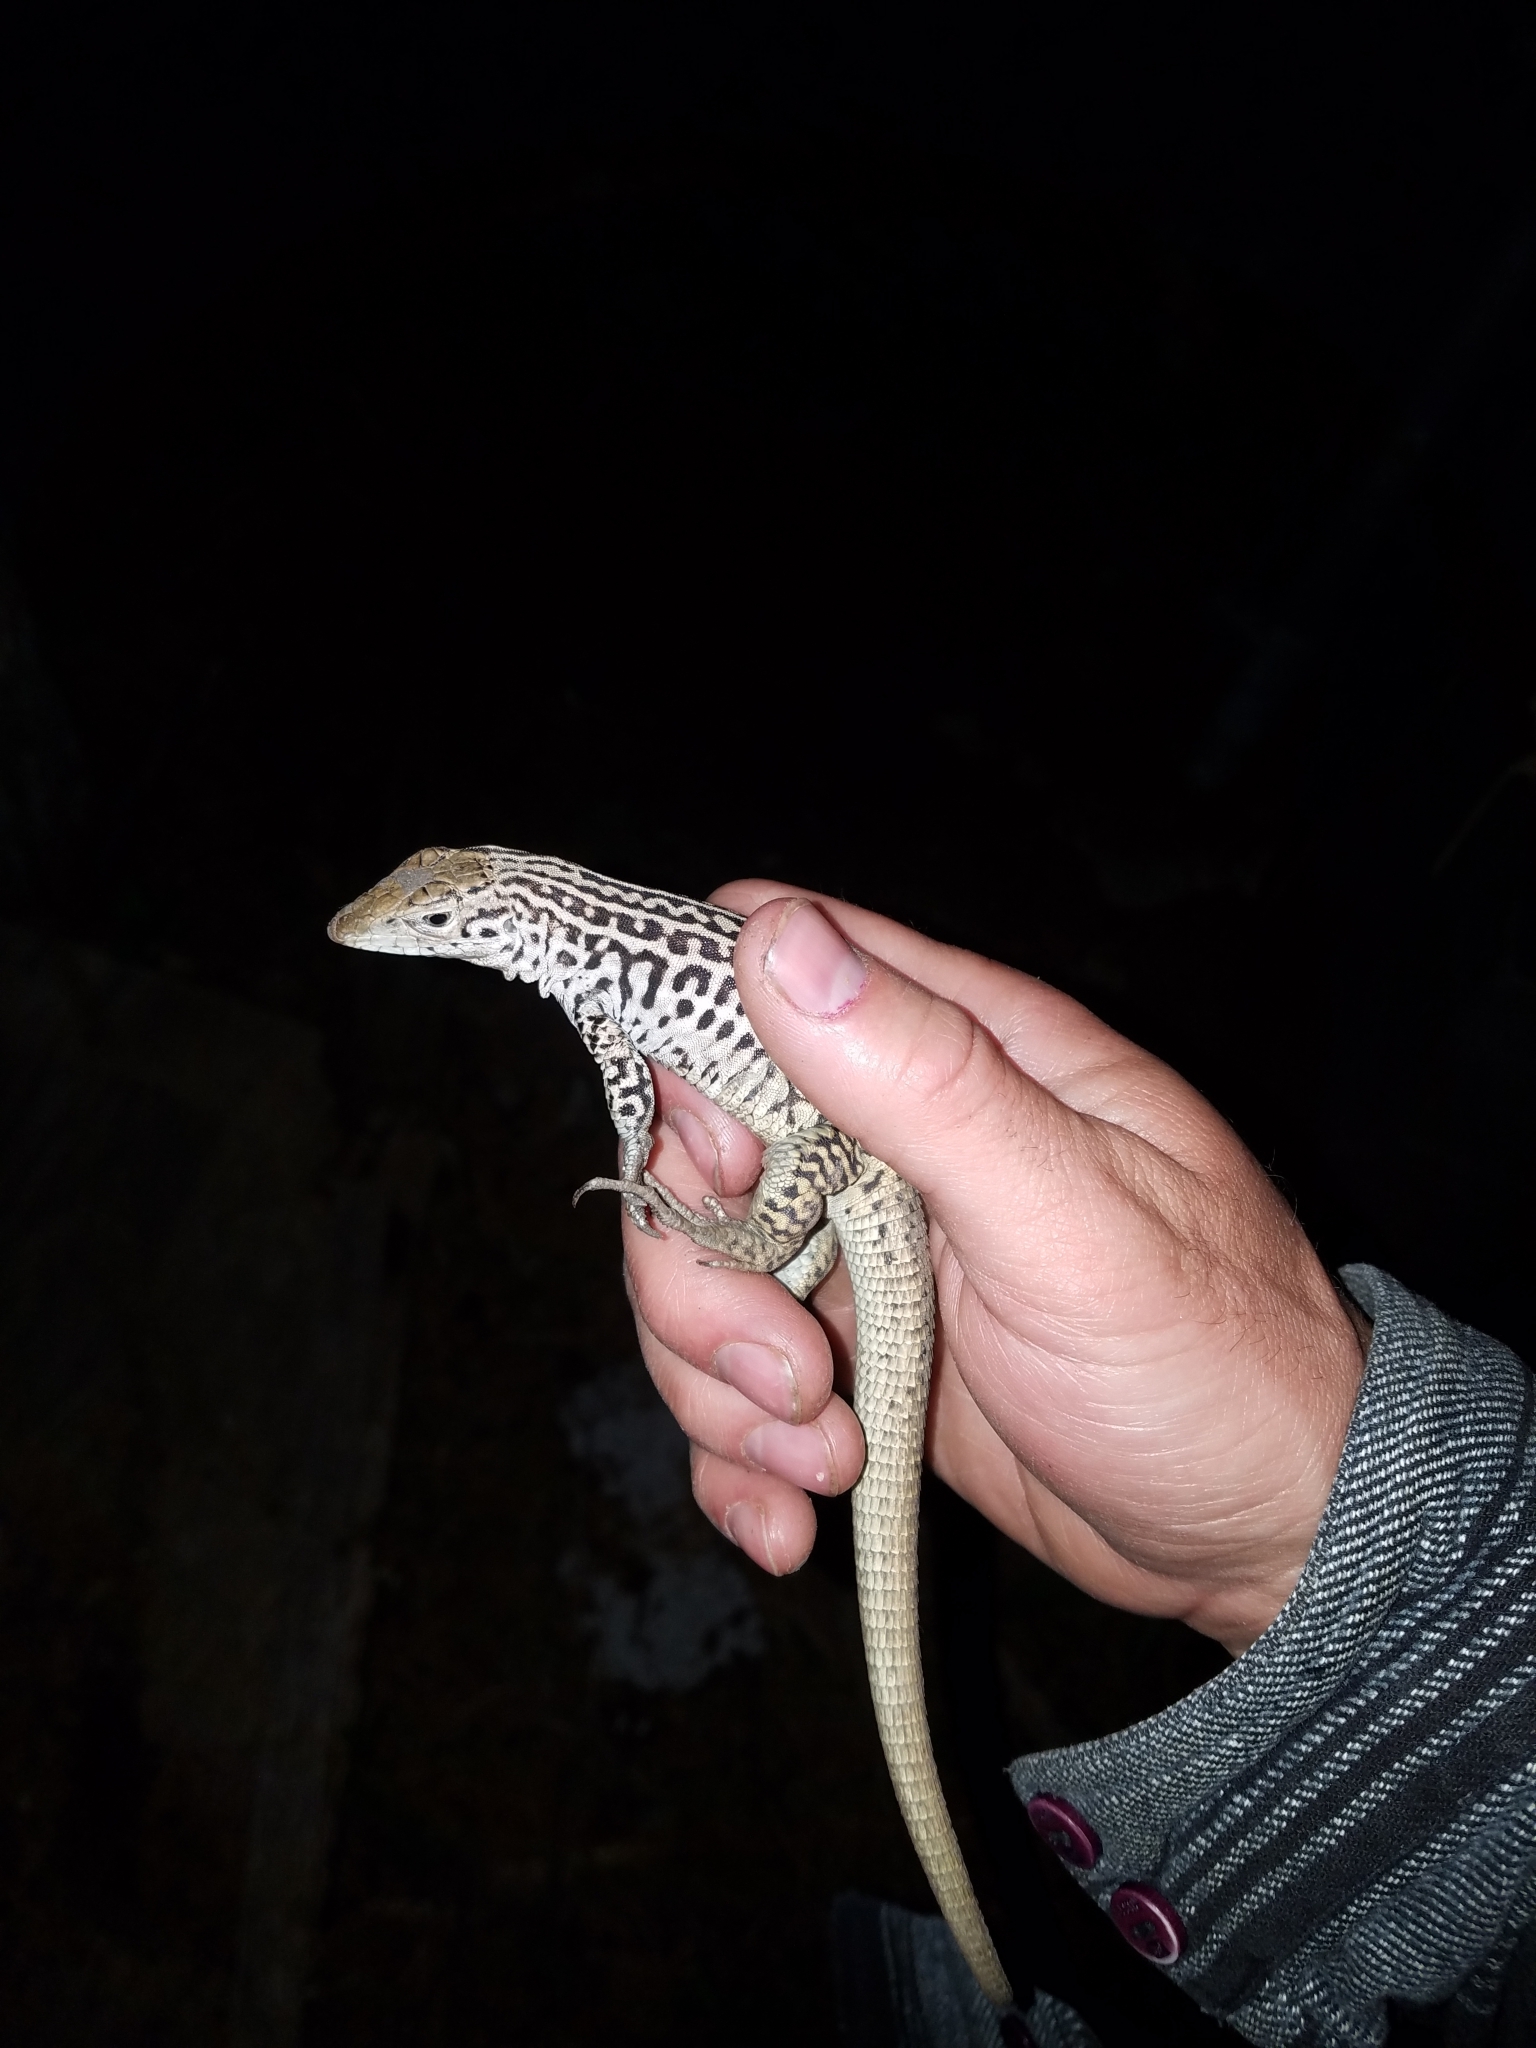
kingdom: Animalia
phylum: Chordata
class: Squamata
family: Teiidae
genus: Aspidoscelis
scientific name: Aspidoscelis tesselatus
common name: Common checkered whiptail [tesselata]
